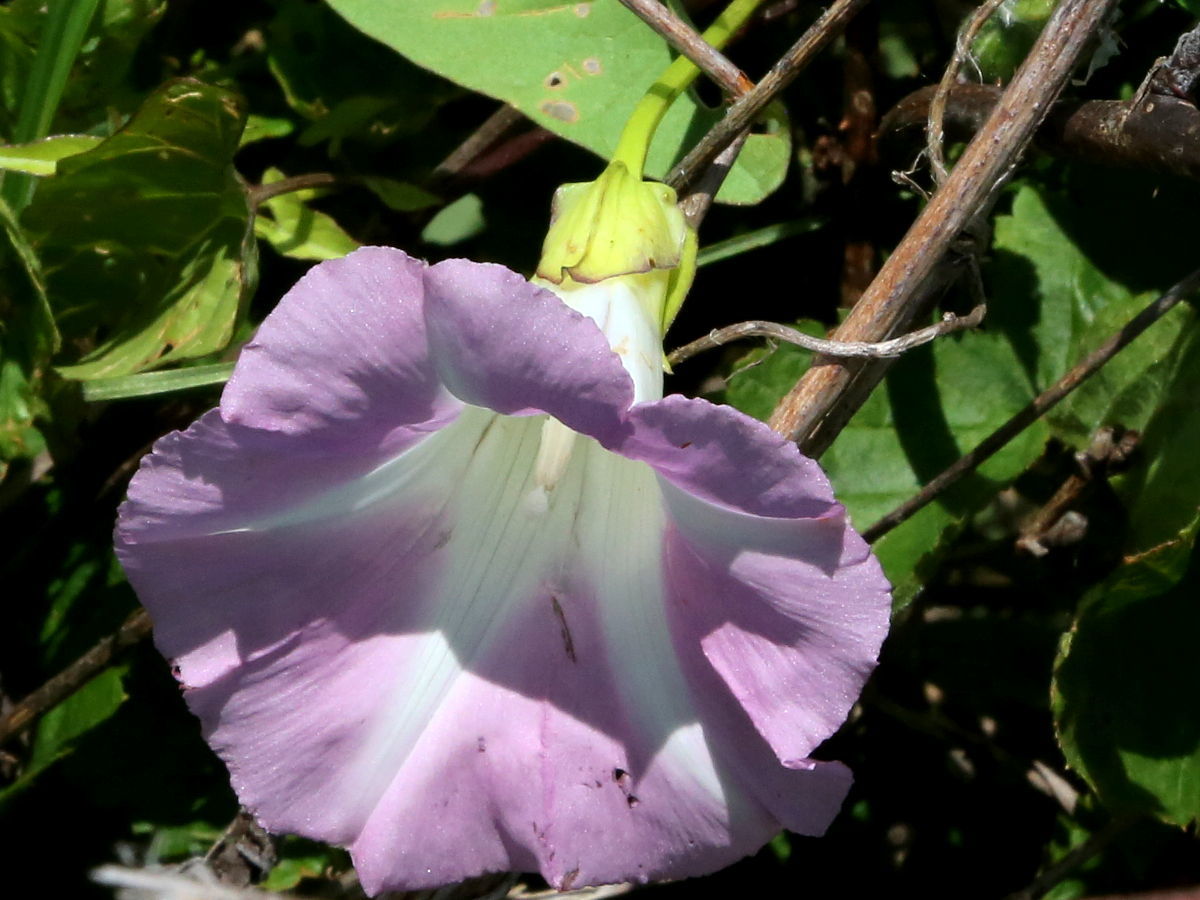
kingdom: Plantae
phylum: Tracheophyta
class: Magnoliopsida
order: Solanales
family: Convolvulaceae
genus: Calystegia
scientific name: Calystegia sepium
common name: Hedge bindweed
